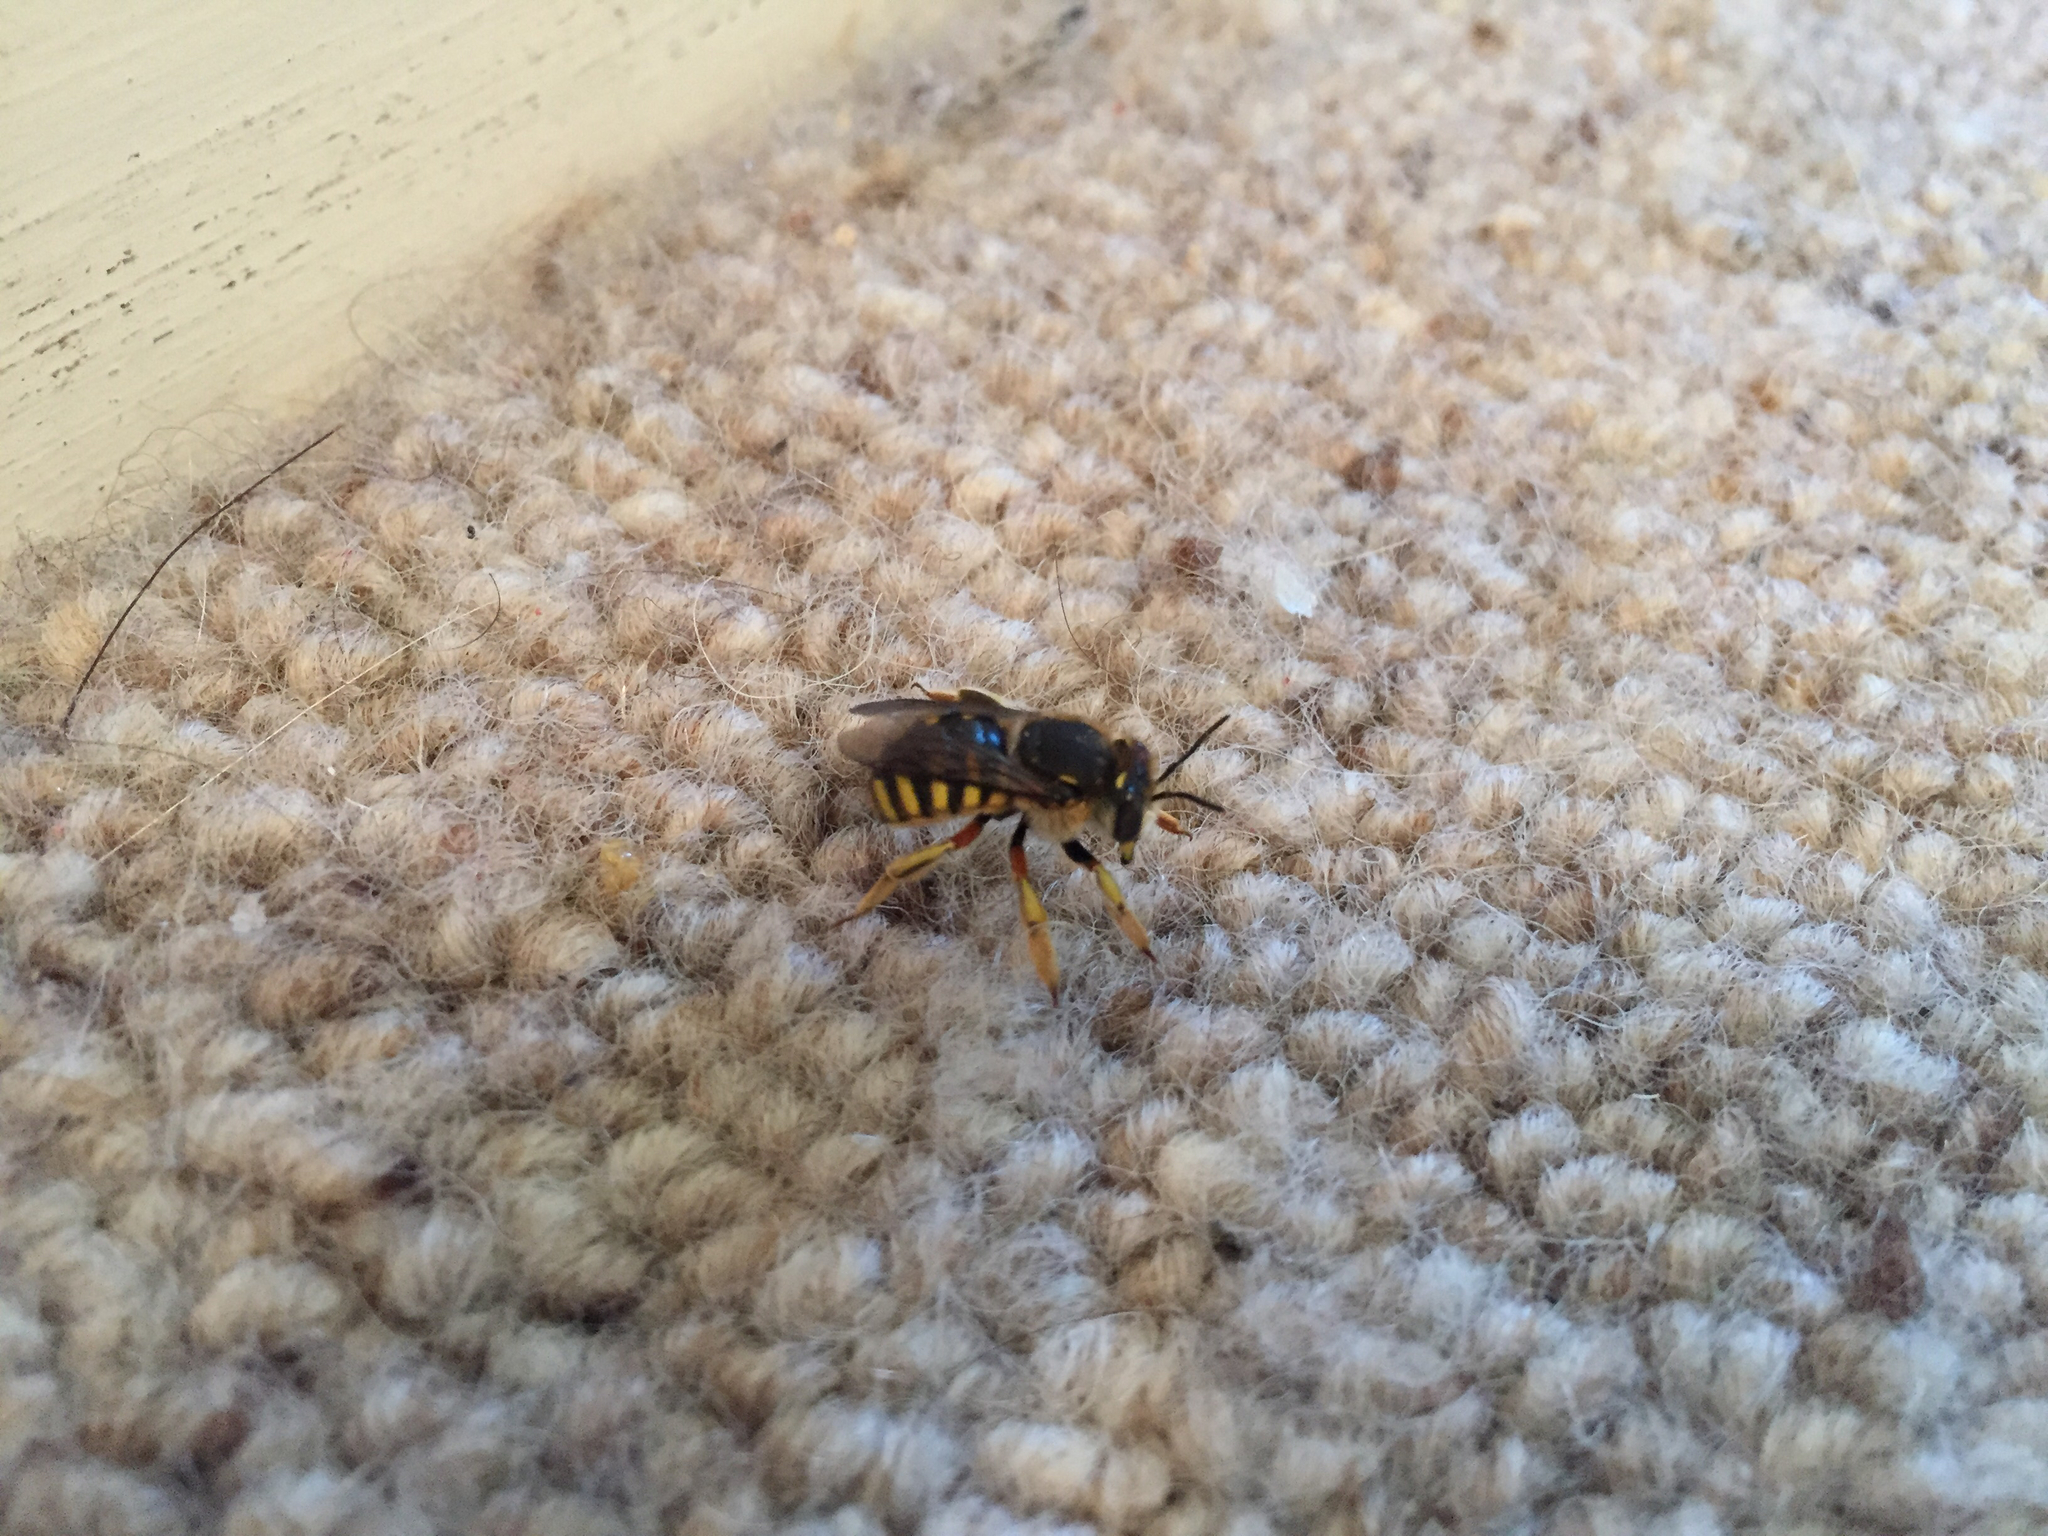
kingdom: Animalia
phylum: Arthropoda
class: Insecta
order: Hymenoptera
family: Megachilidae
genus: Anthidium
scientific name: Anthidium manicatum
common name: Wool carder bee
